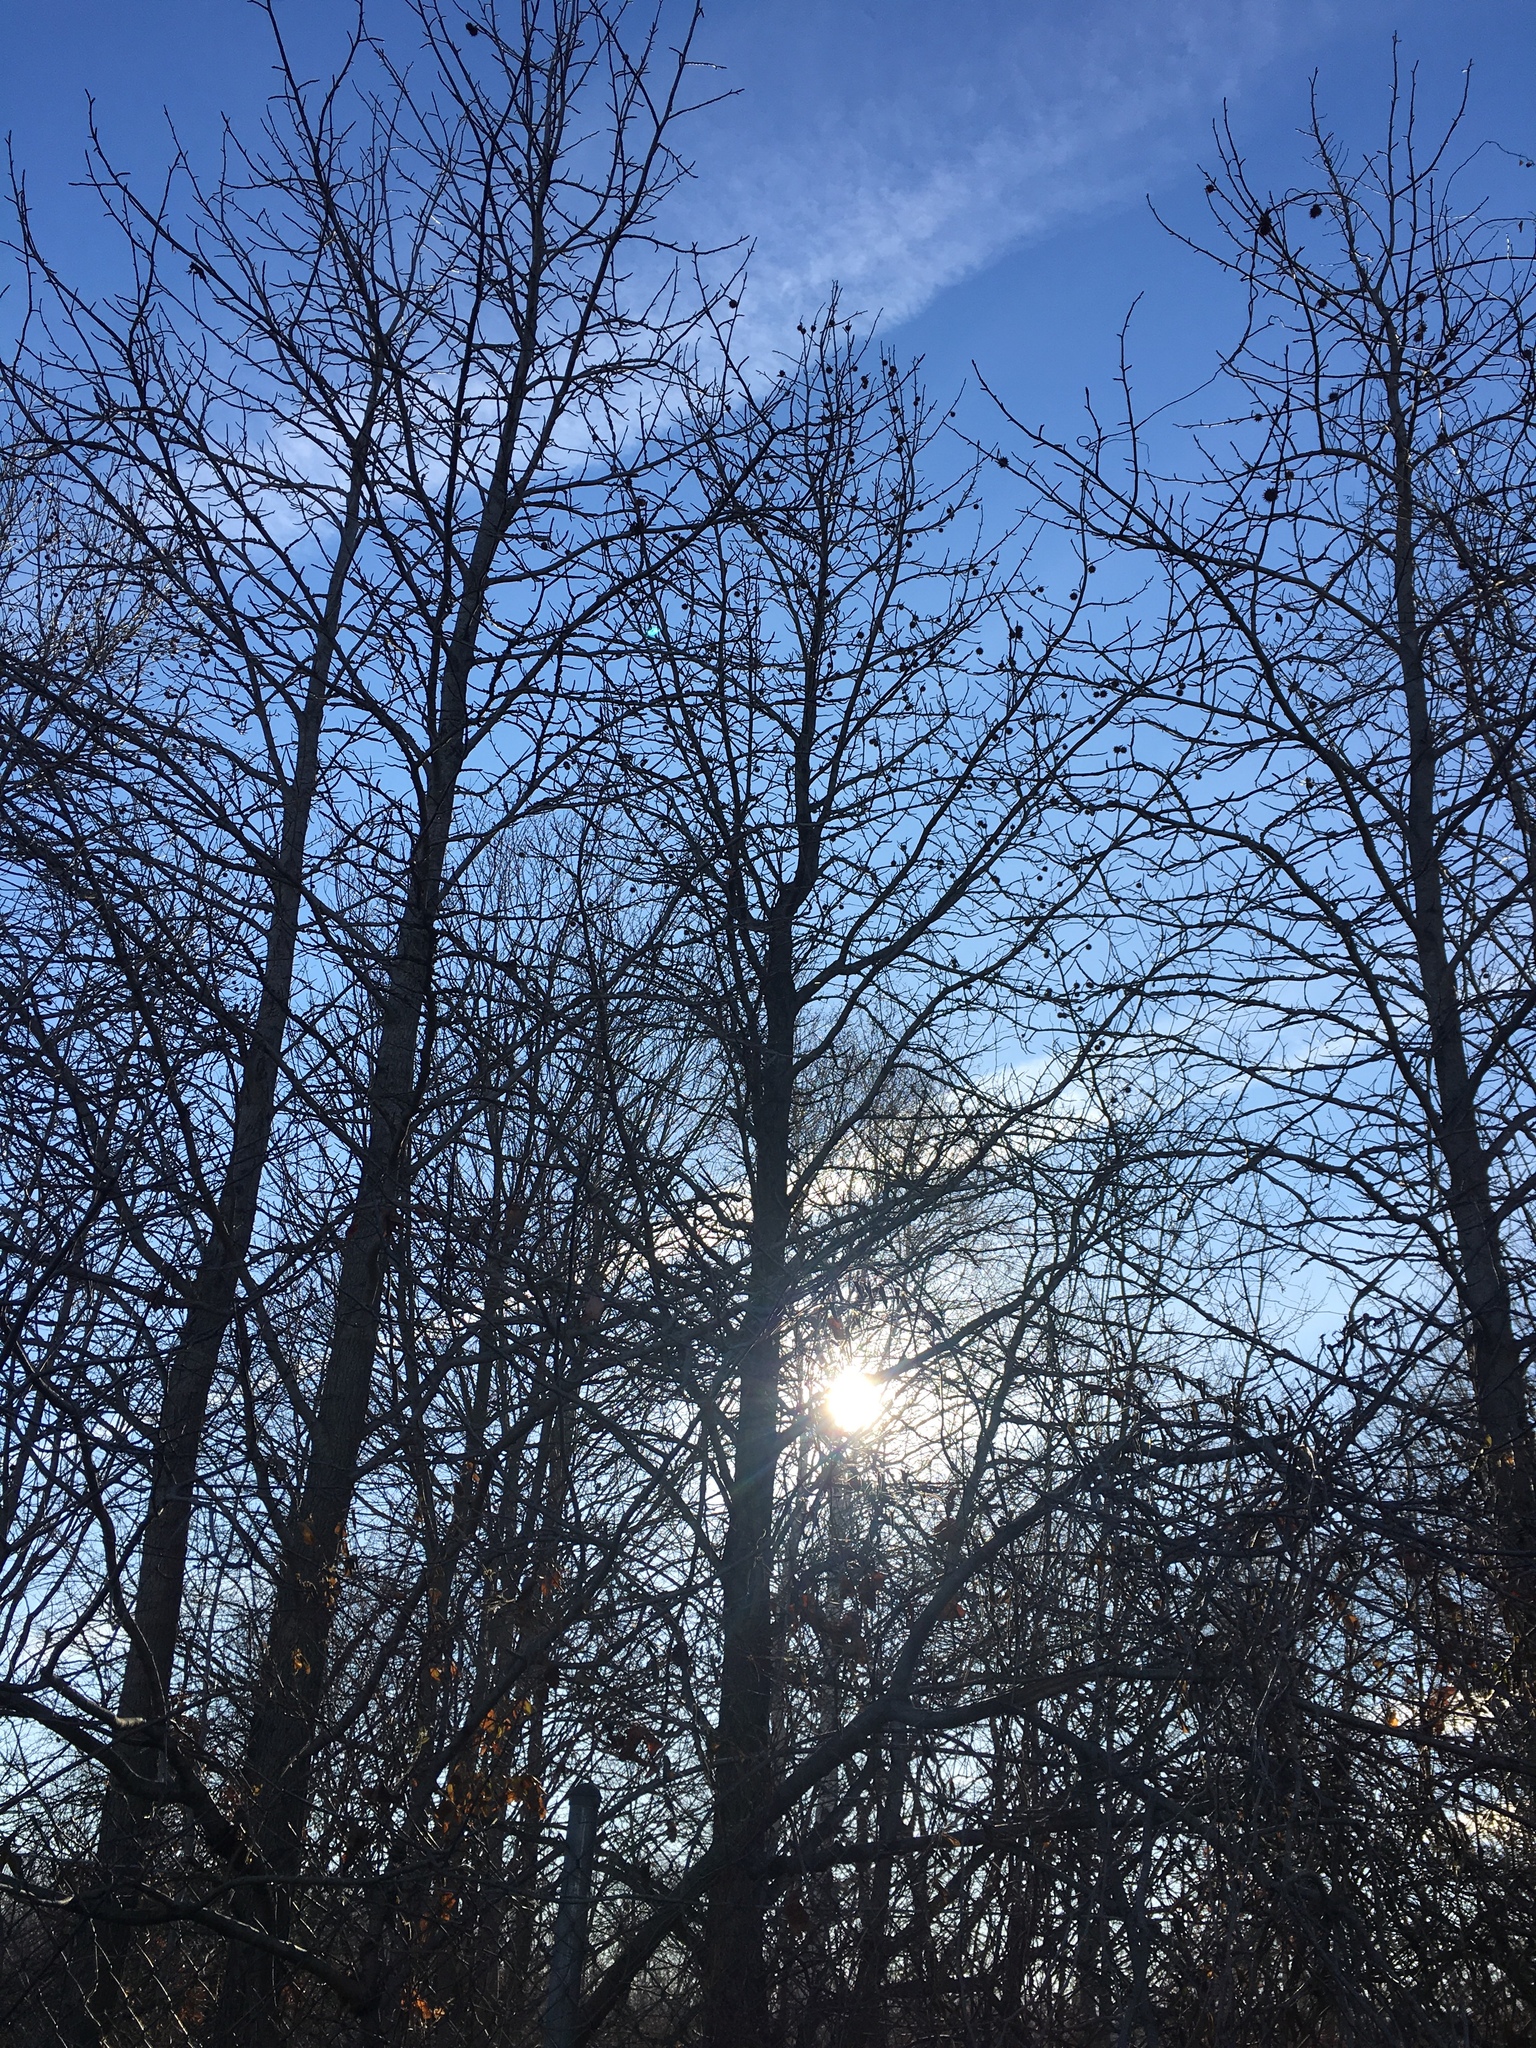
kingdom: Plantae
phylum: Tracheophyta
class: Magnoliopsida
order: Saxifragales
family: Altingiaceae
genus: Liquidambar
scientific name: Liquidambar styraciflua
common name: Sweet gum
